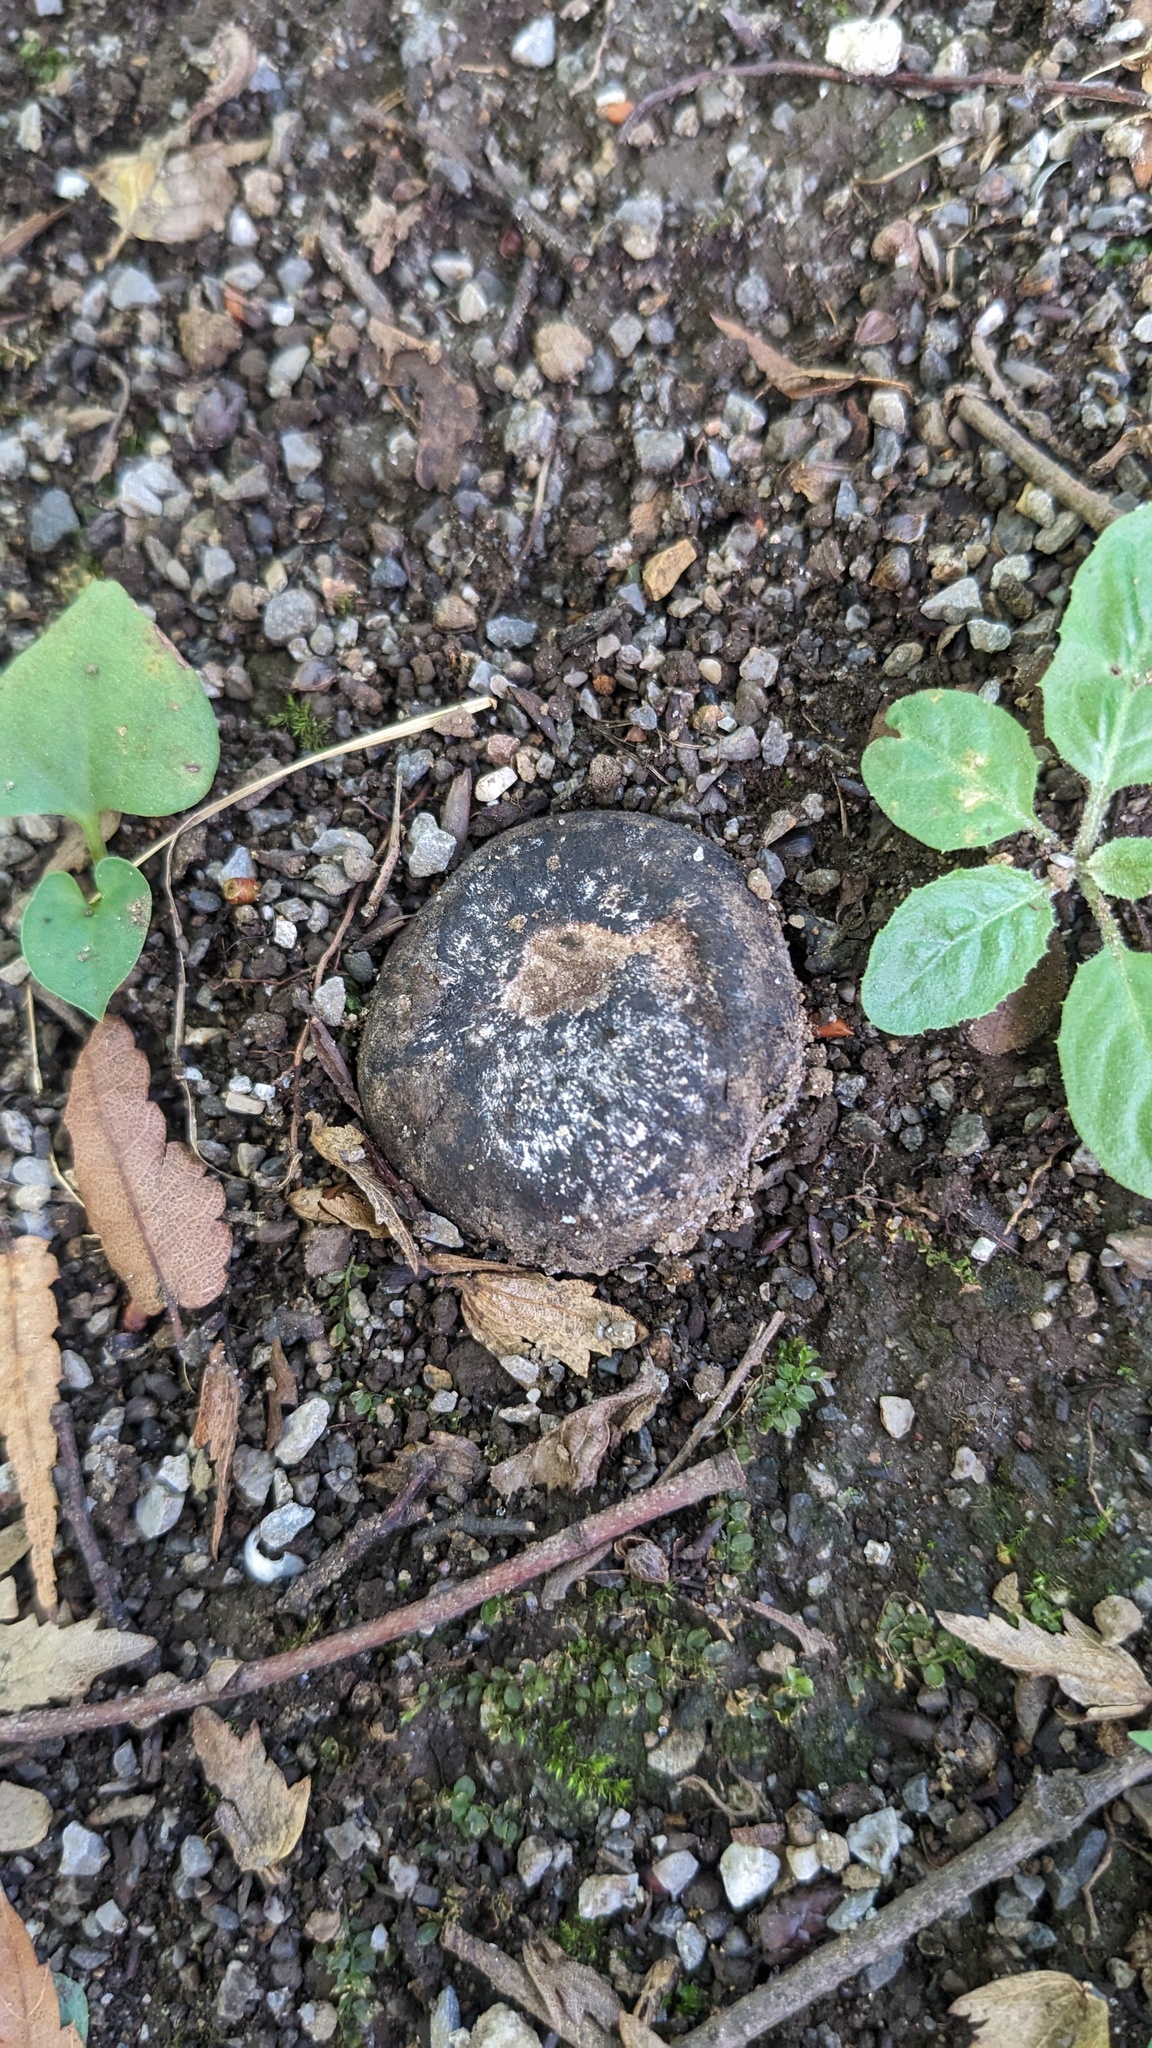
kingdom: Fungi
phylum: Basidiomycota
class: Agaricomycetes
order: Boletales
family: Diplocystidiaceae
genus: Astraeus
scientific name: Astraeus hygrometricus
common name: Barometer earthstar
